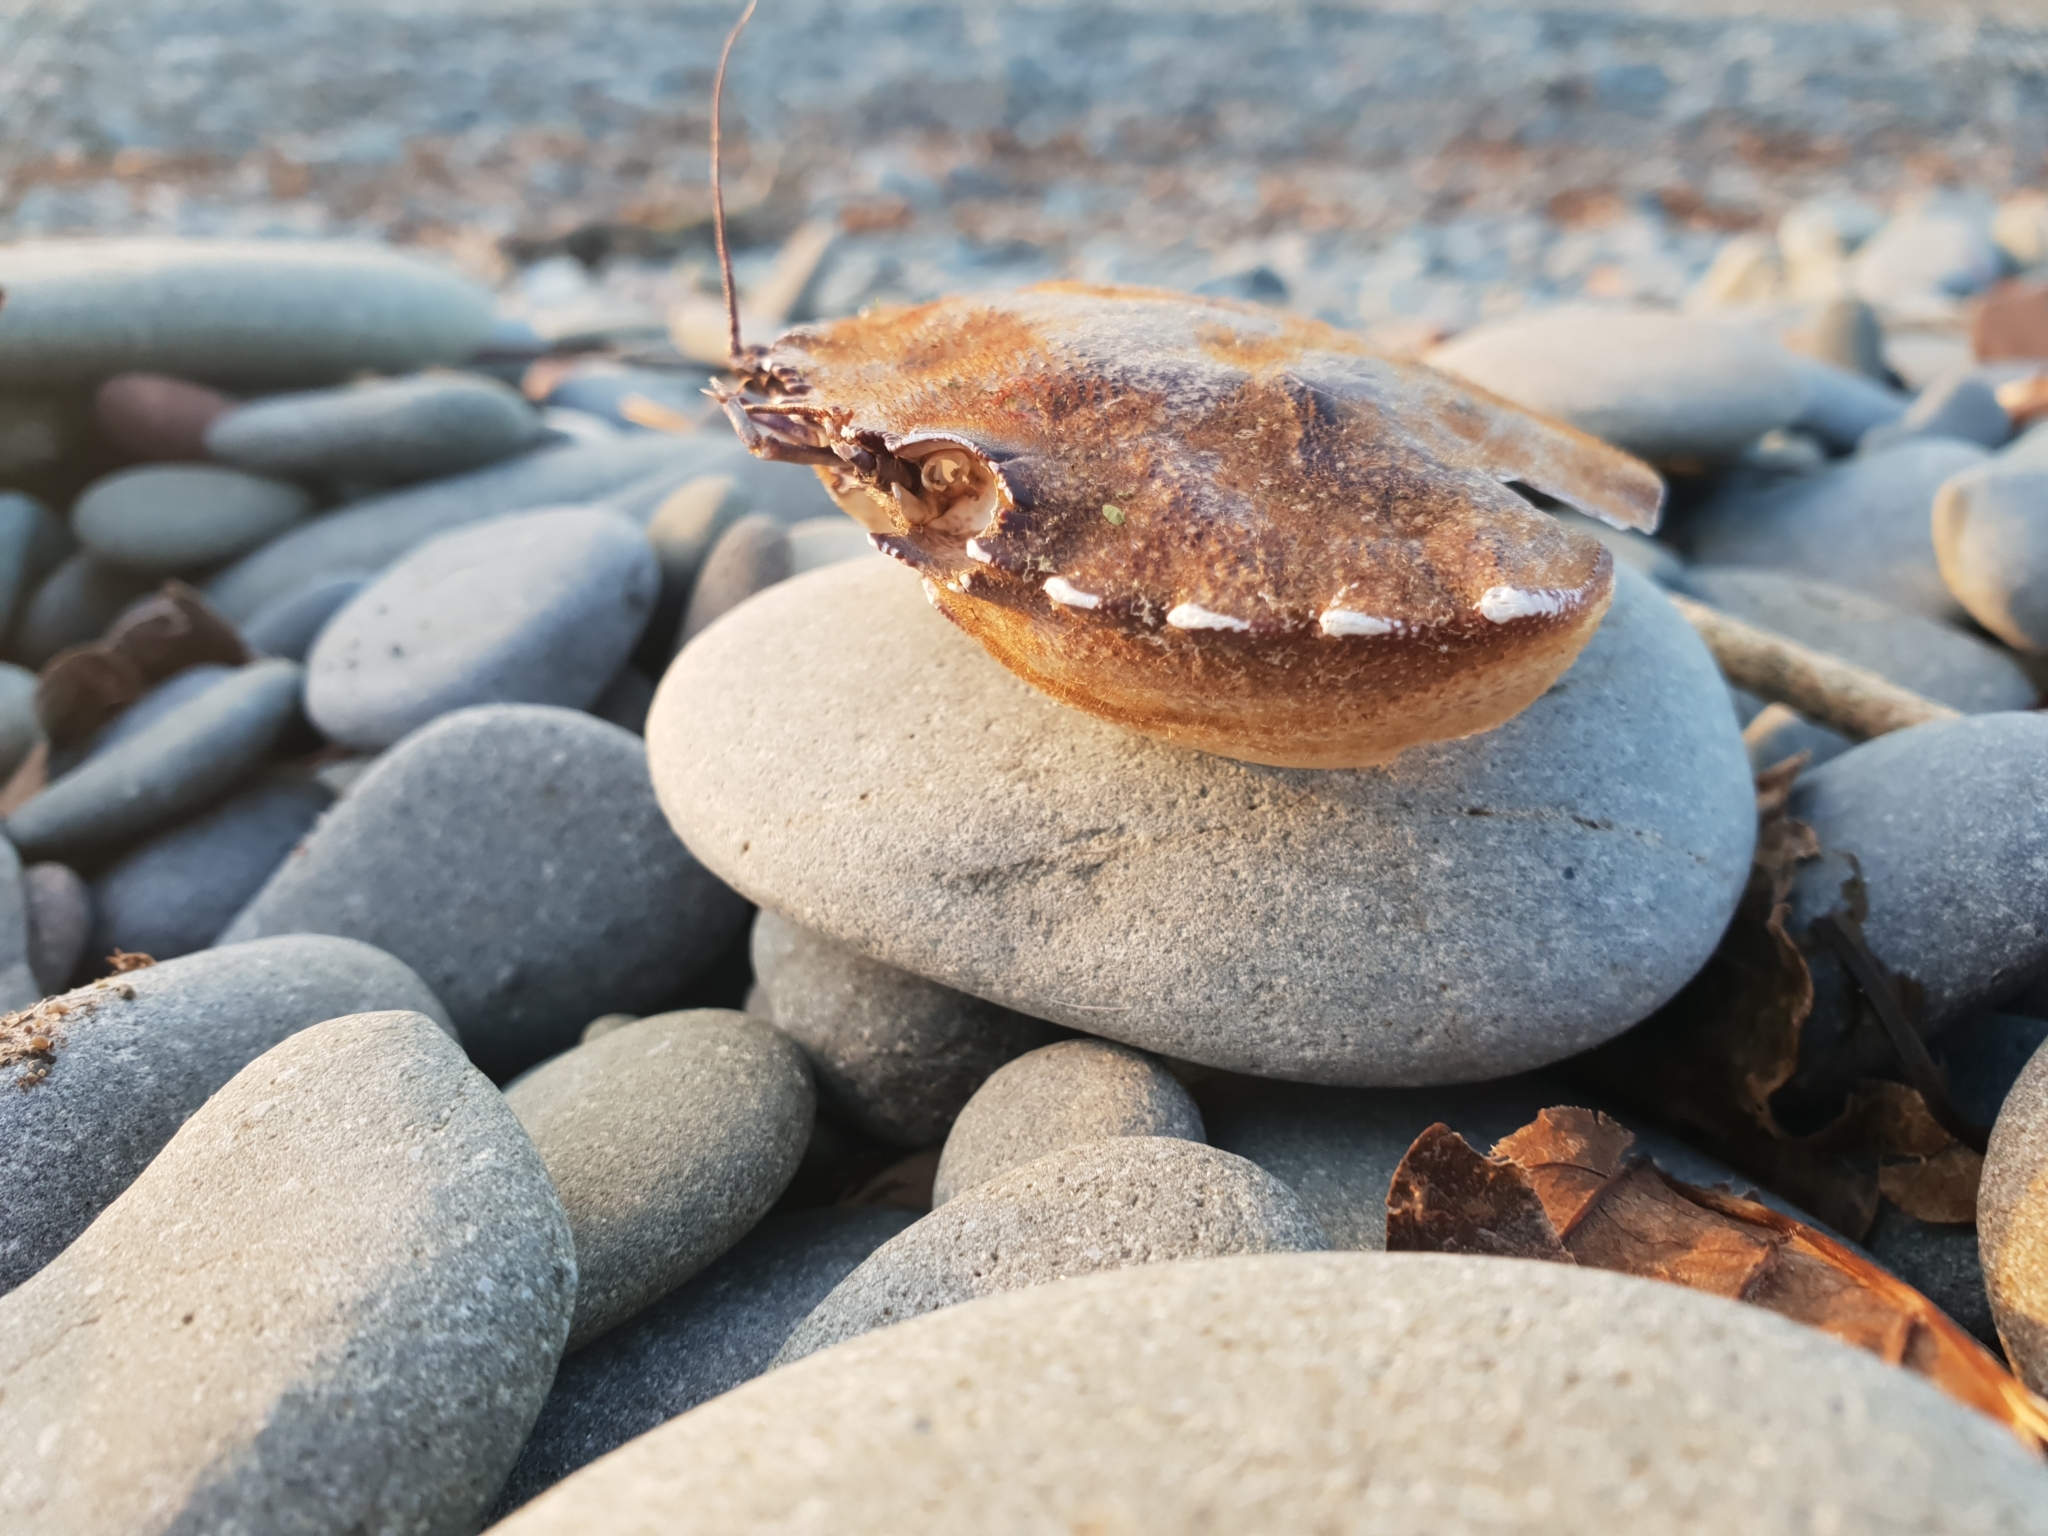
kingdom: Animalia
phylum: Arthropoda
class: Malacostraca
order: Decapoda
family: Polybiidae
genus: Necora
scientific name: Necora puber
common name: Velvet swimming crab
